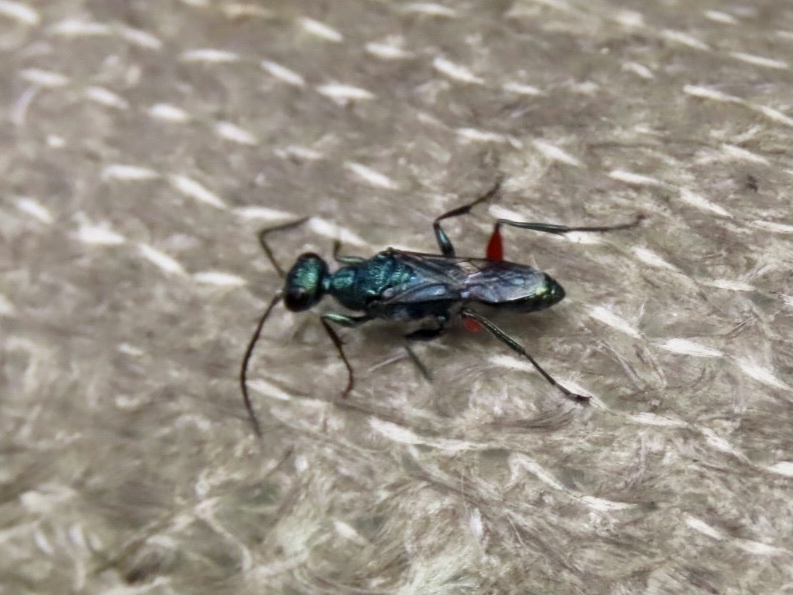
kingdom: Animalia
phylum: Arthropoda
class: Insecta
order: Hymenoptera
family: Ampulicidae
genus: Ampulex
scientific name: Ampulex dissector
